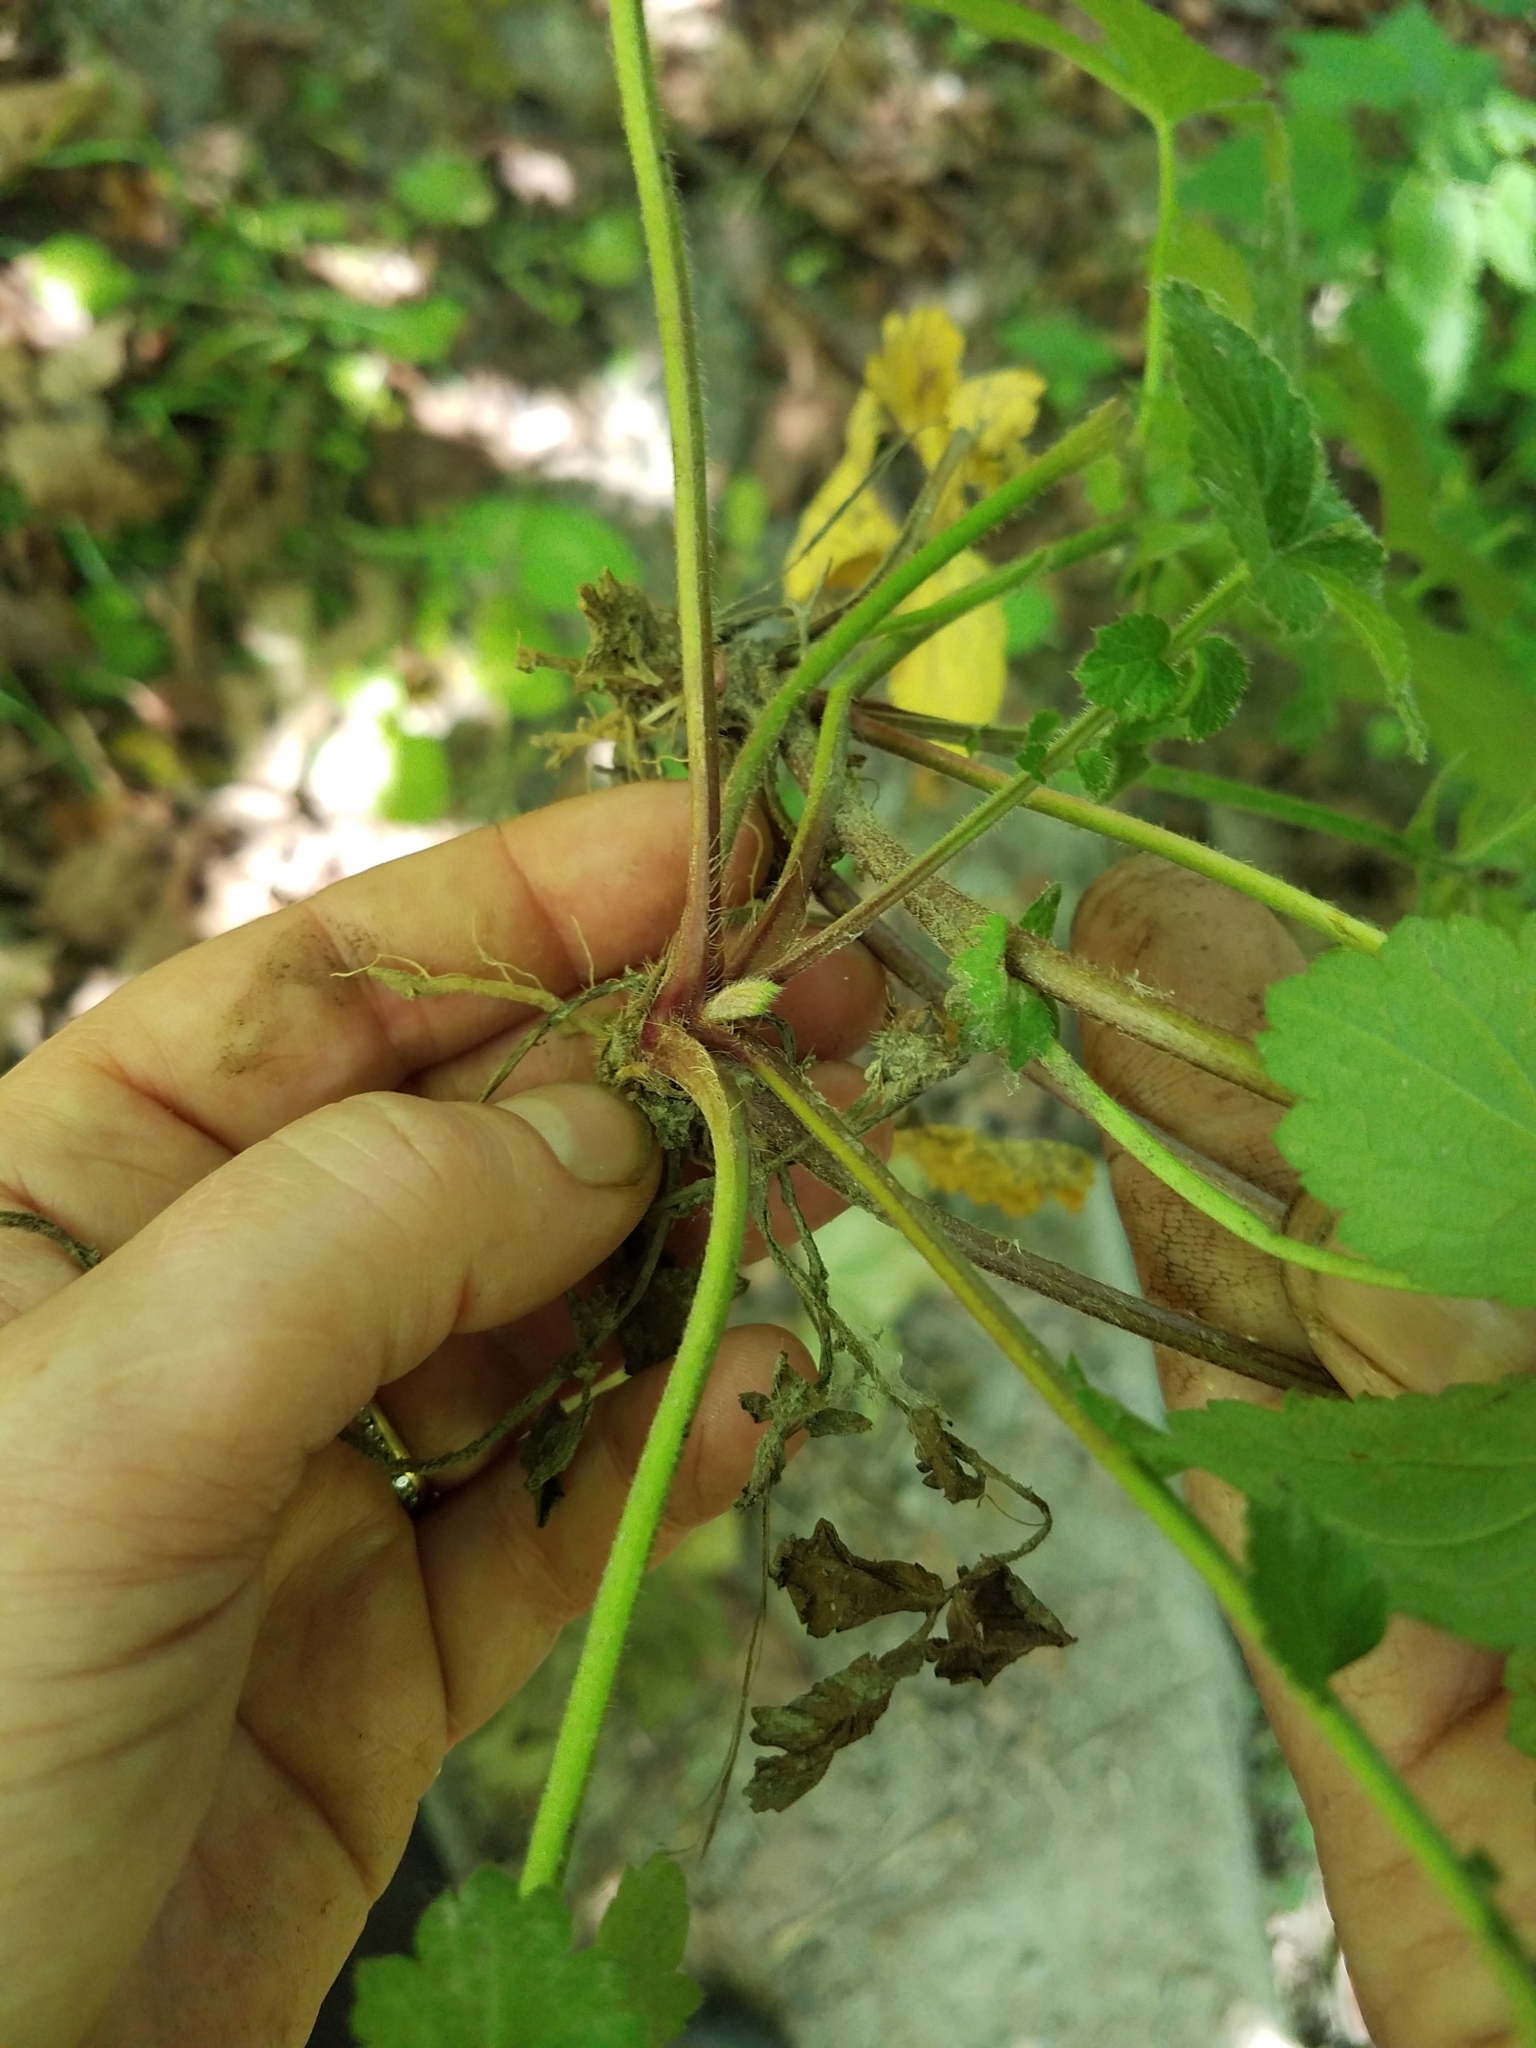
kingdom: Plantae
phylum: Tracheophyta
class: Magnoliopsida
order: Rosales
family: Rosaceae
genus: Geum
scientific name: Geum urbanum
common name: Wood avens
